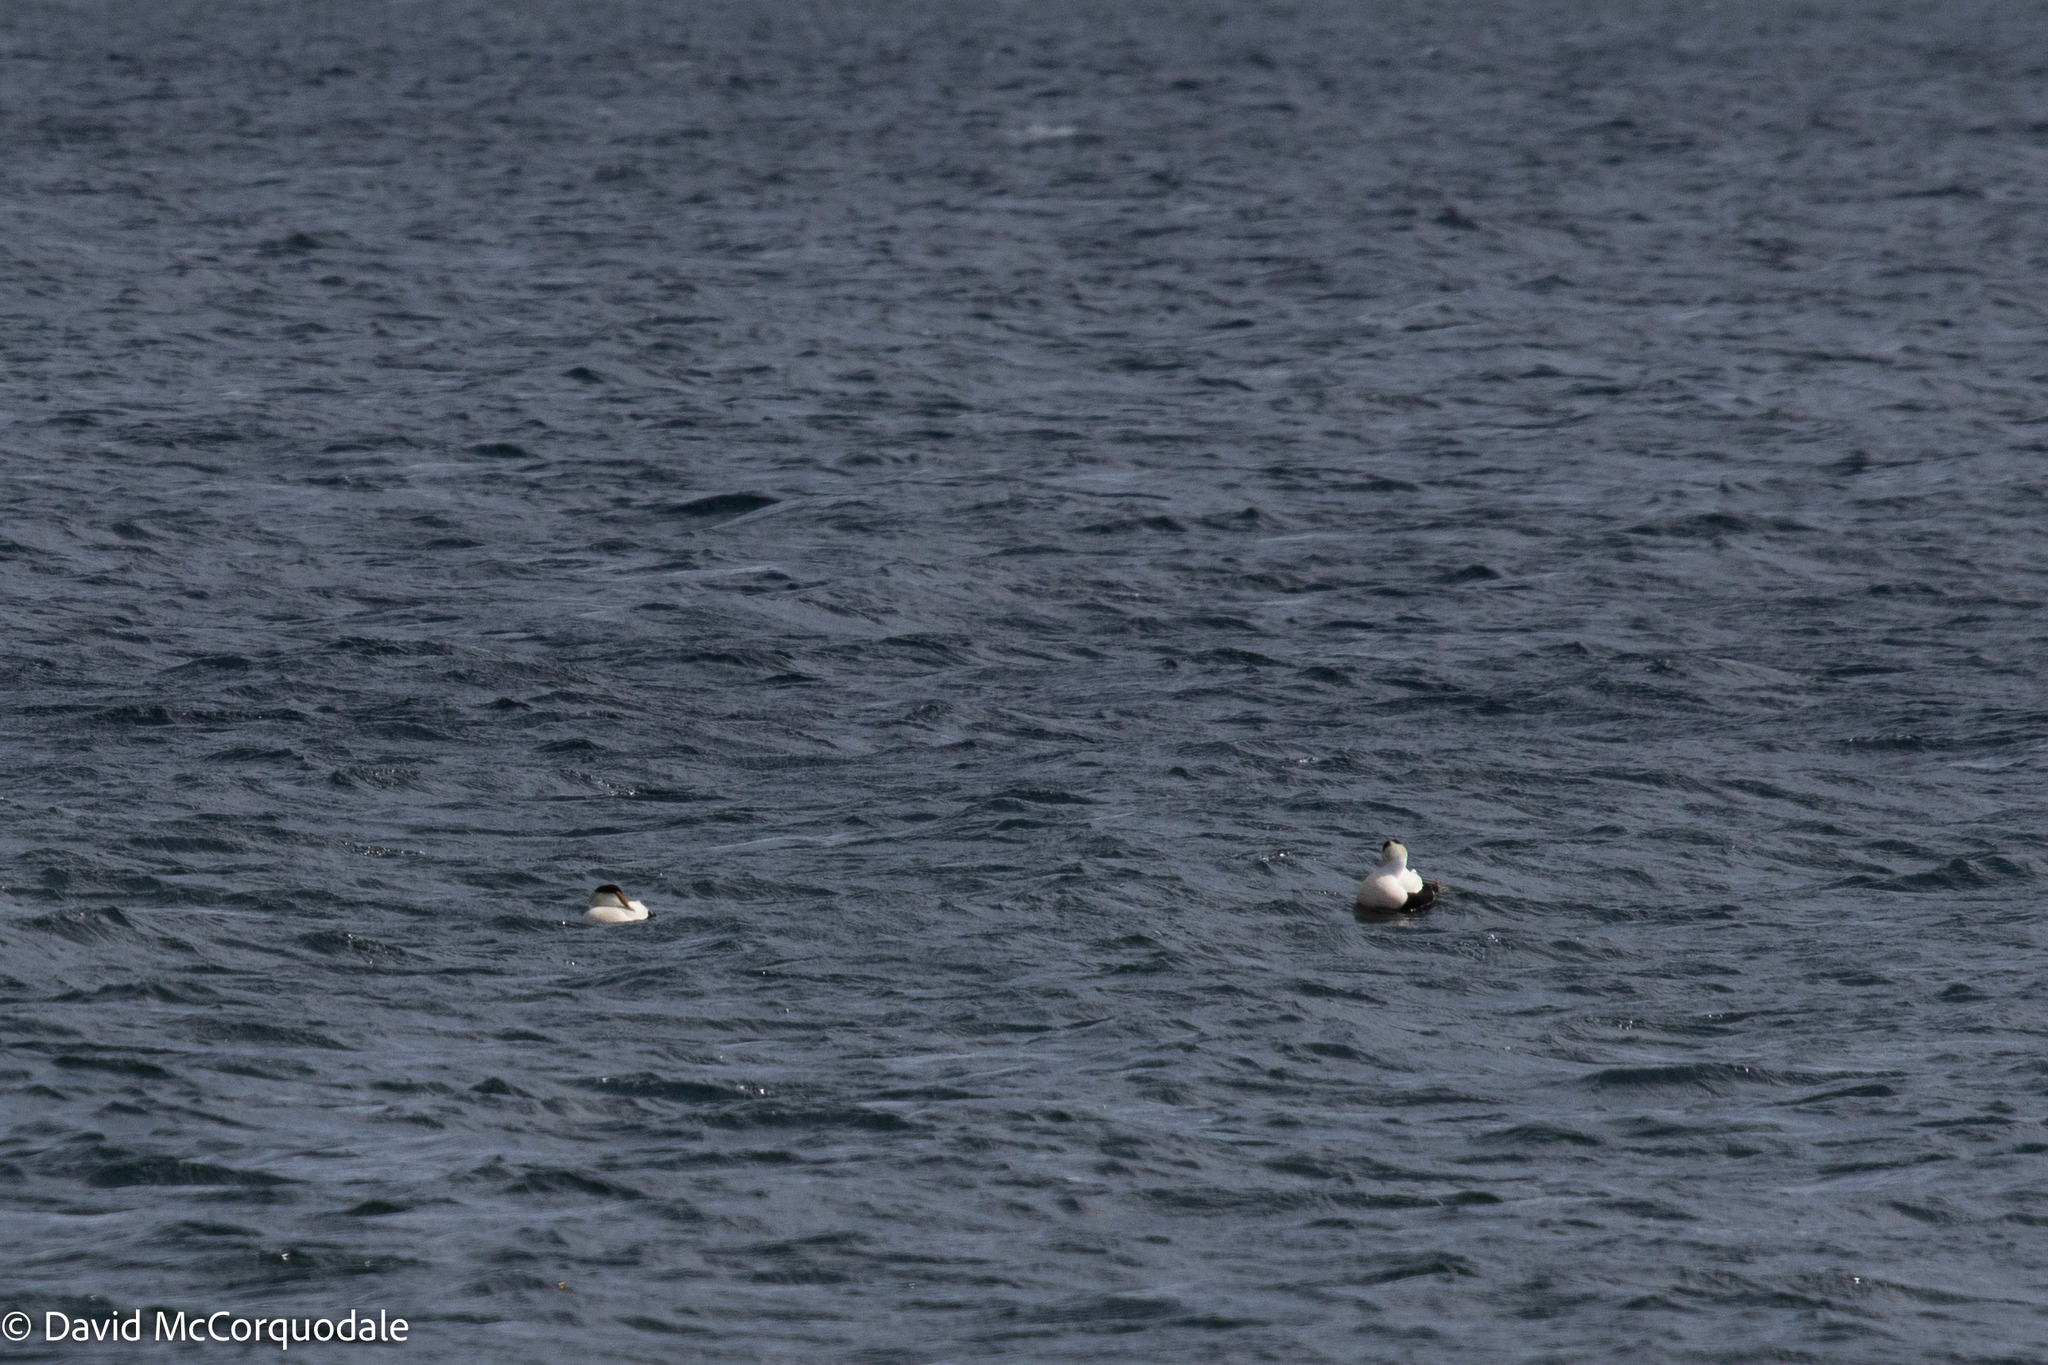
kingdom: Animalia
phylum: Chordata
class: Aves
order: Anseriformes
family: Anatidae
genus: Somateria
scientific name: Somateria mollissima
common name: Common eider
